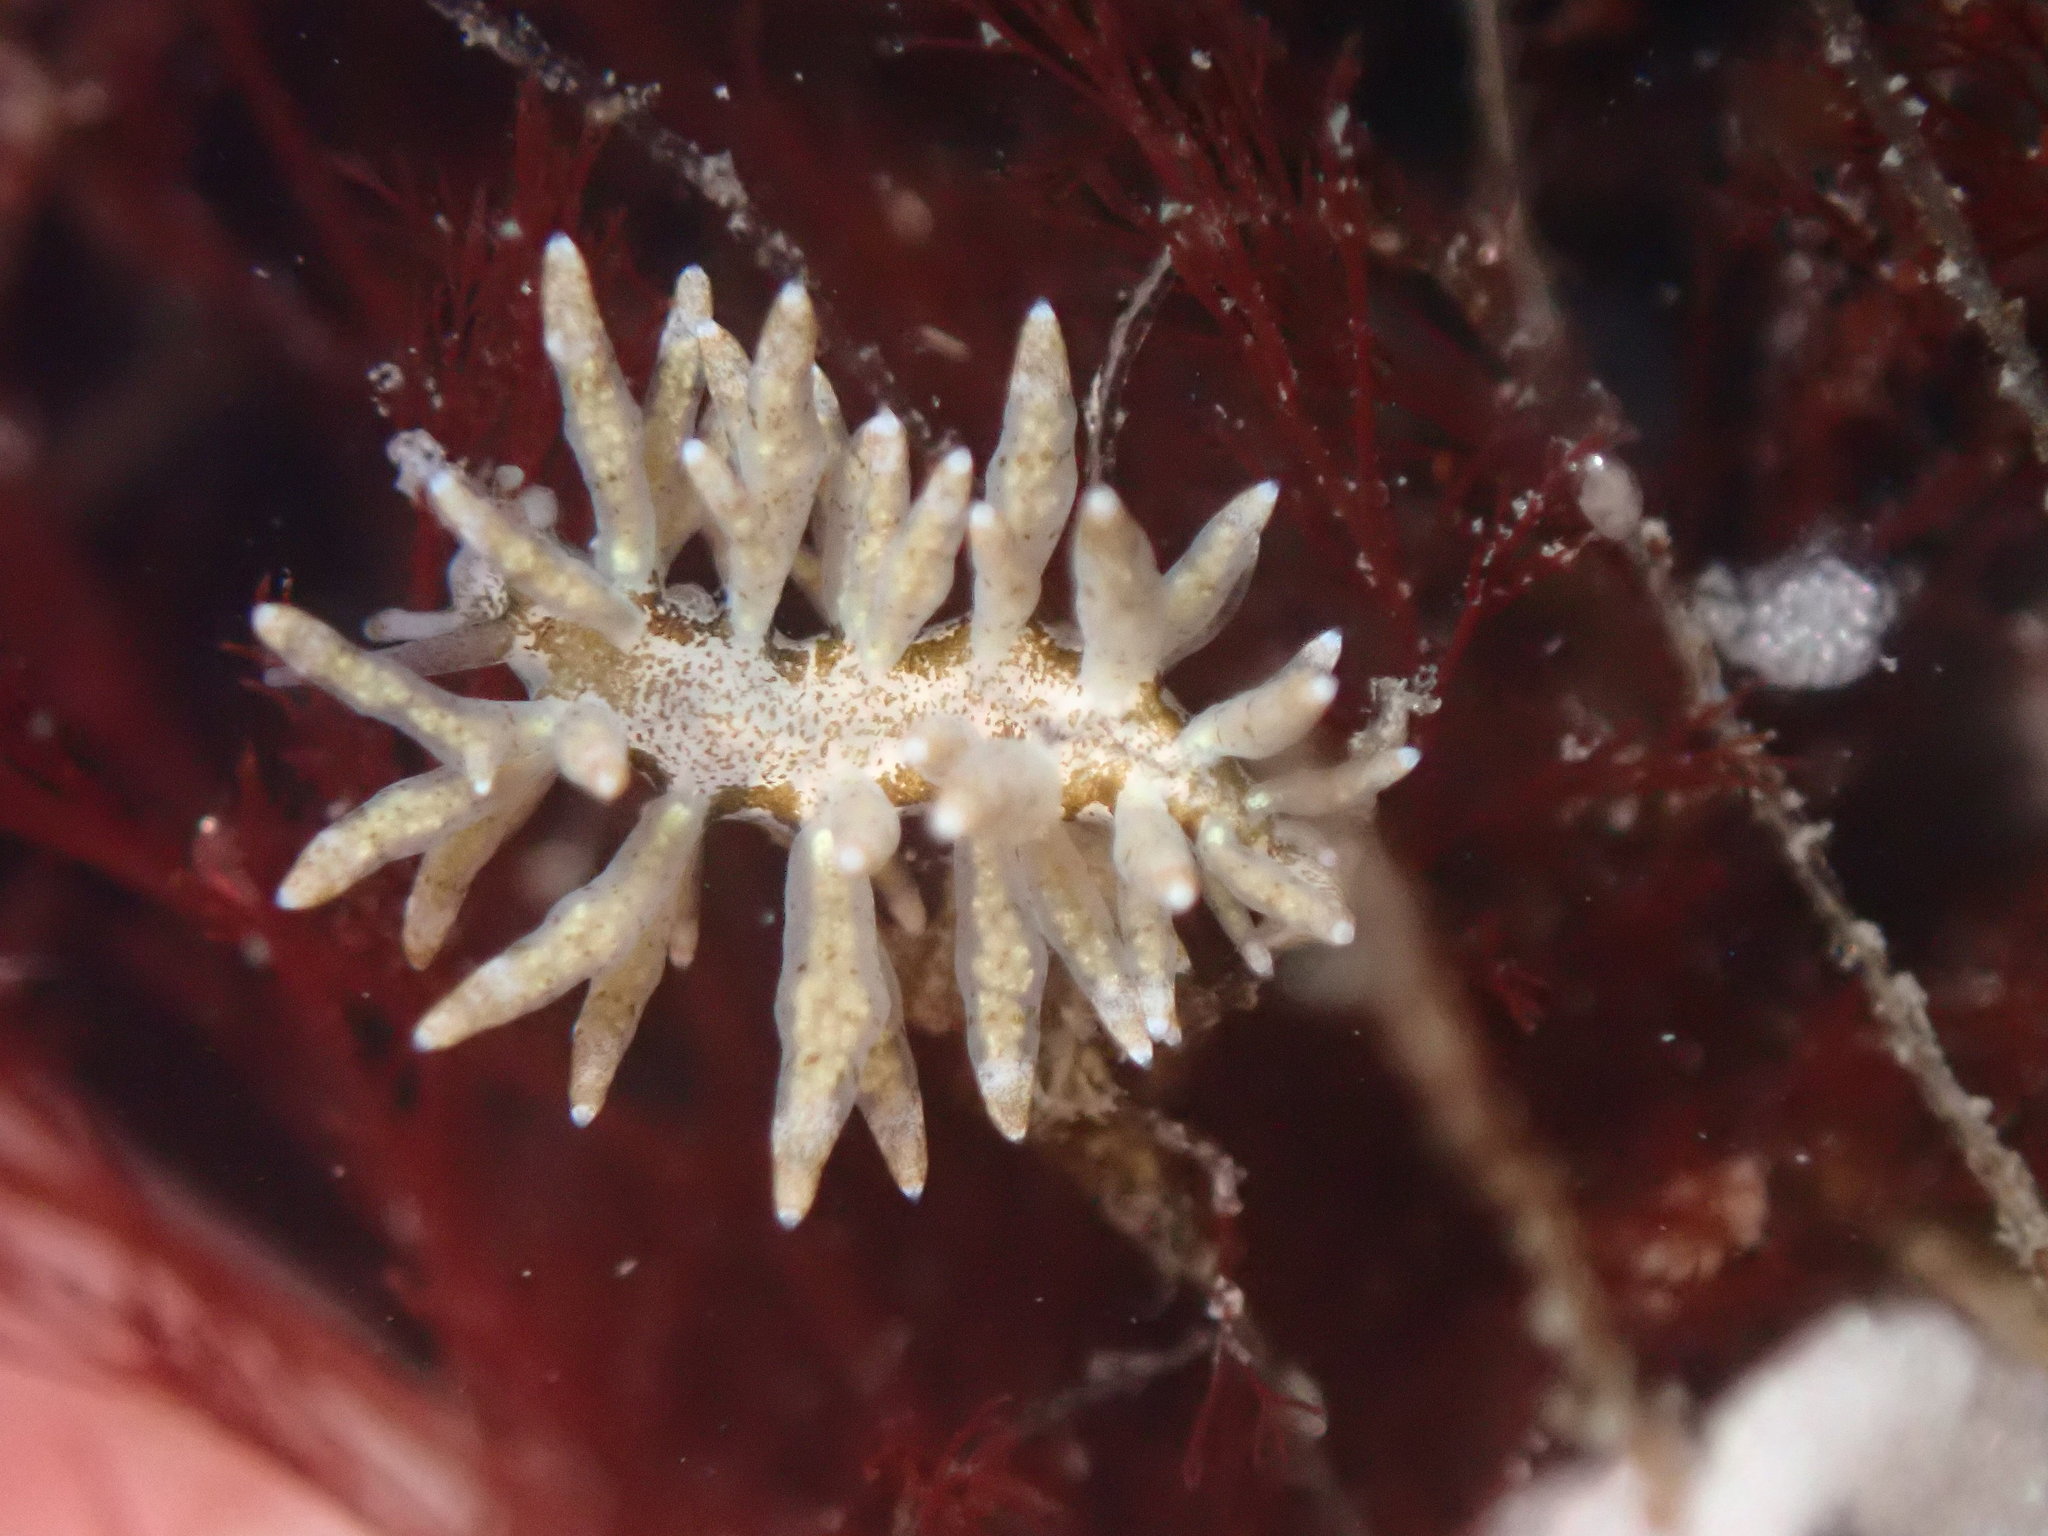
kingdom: Animalia
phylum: Mollusca
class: Gastropoda
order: Nudibranchia
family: Eubranchidae
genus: Eubranchus
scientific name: Eubranchus rustyus
